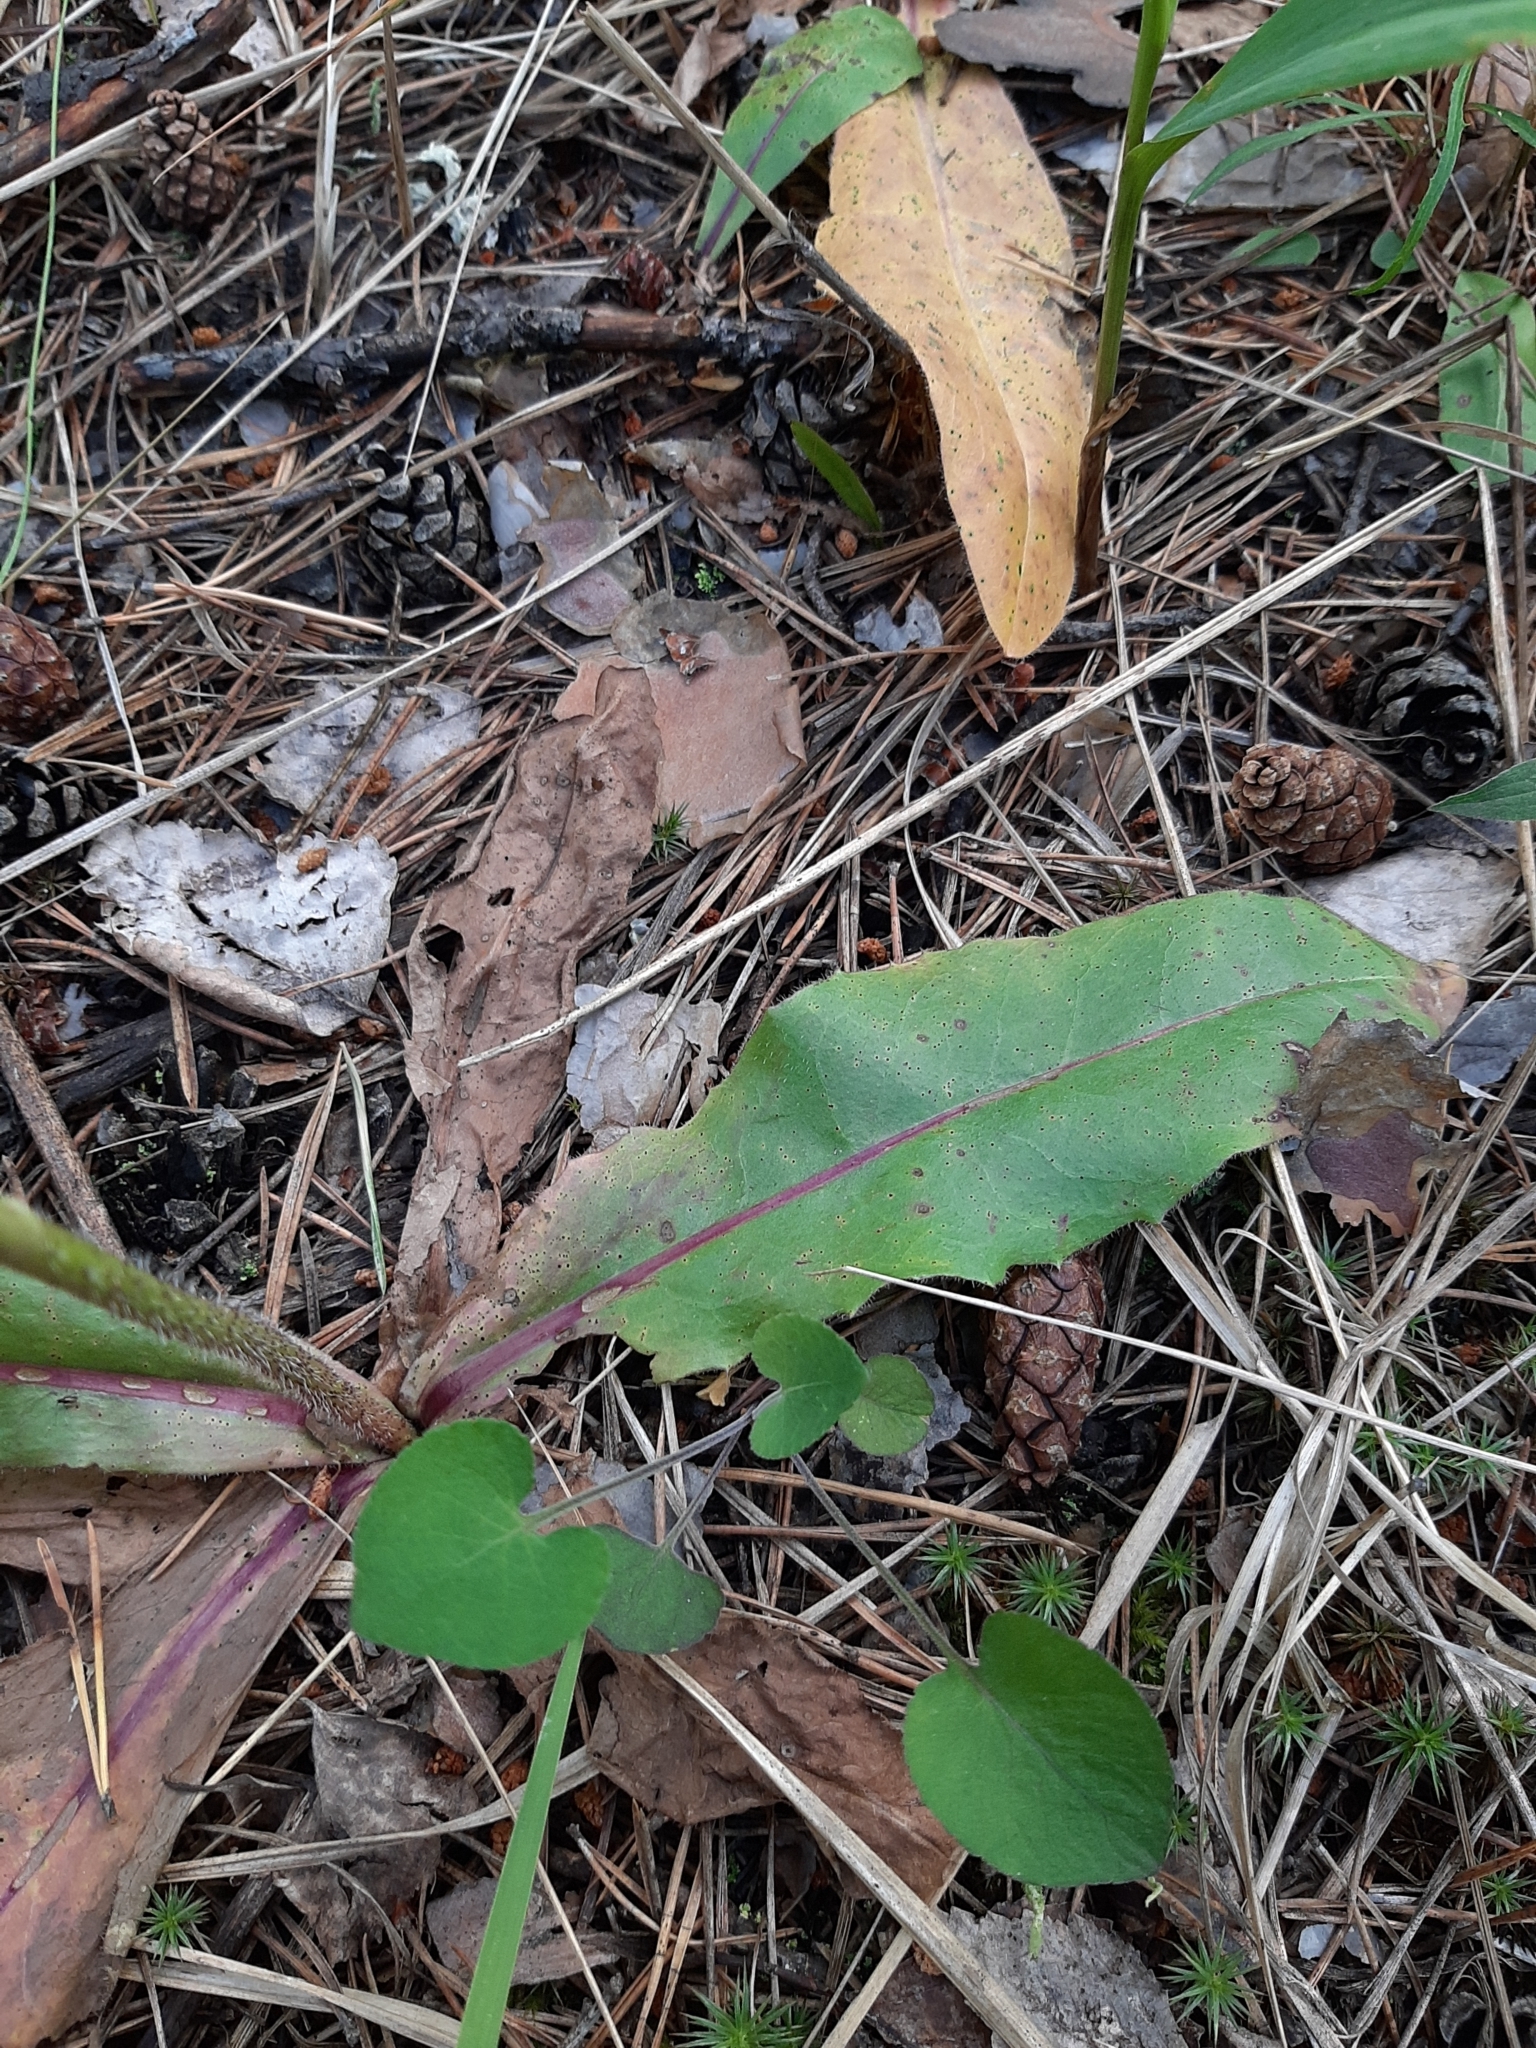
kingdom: Plantae
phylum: Tracheophyta
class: Magnoliopsida
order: Asterales
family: Asteraceae
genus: Trommsdorffia
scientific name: Trommsdorffia maculata
